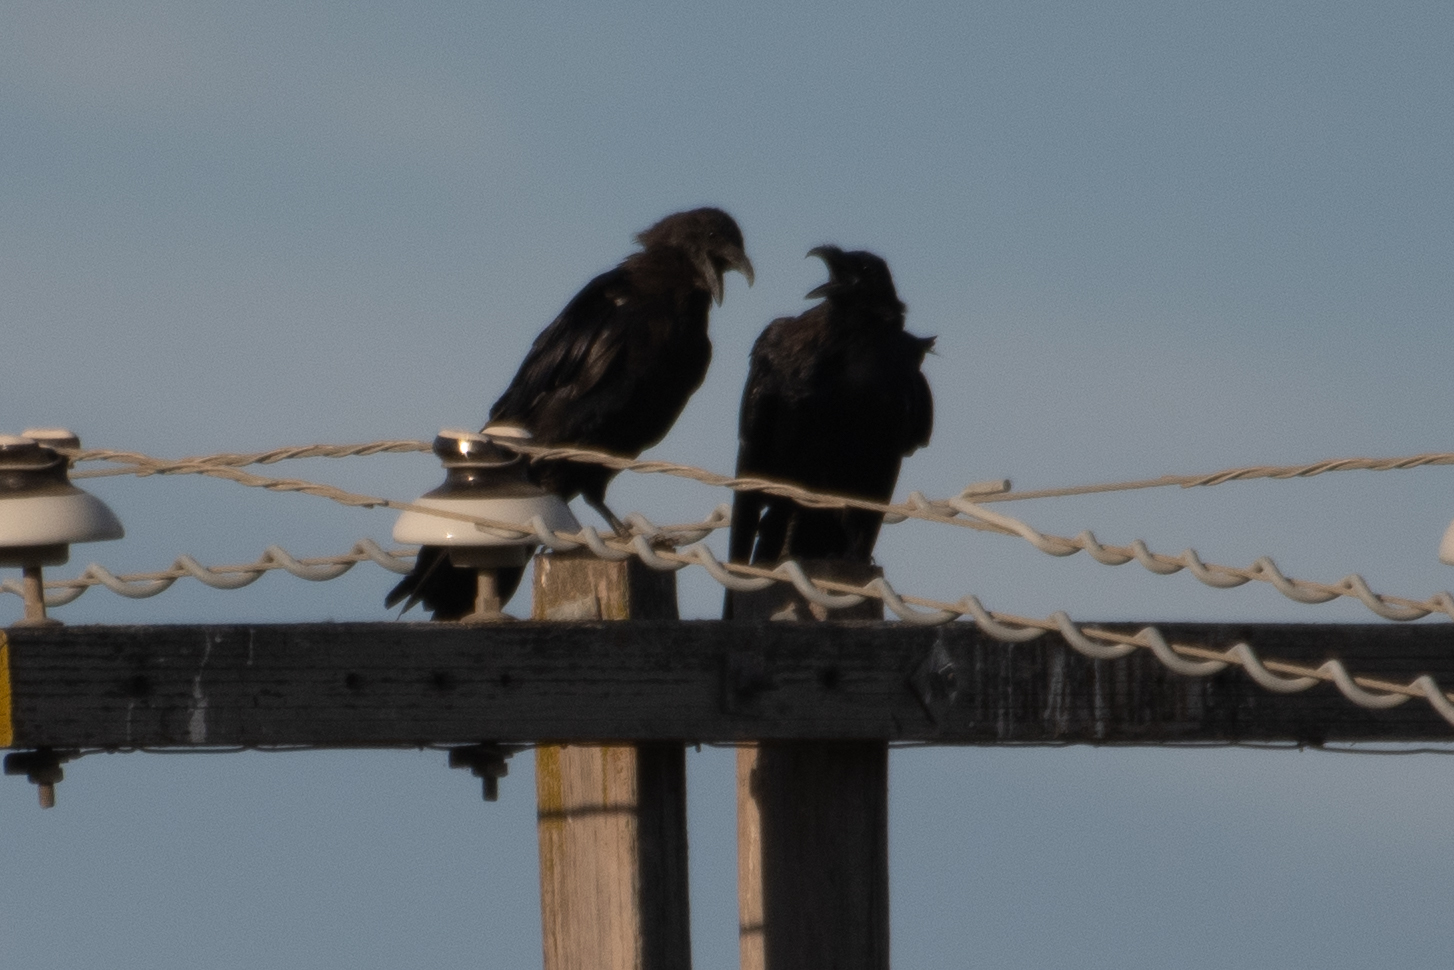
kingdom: Animalia
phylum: Chordata
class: Aves
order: Passeriformes
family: Corvidae
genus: Corvus
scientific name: Corvus corax
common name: Common raven
